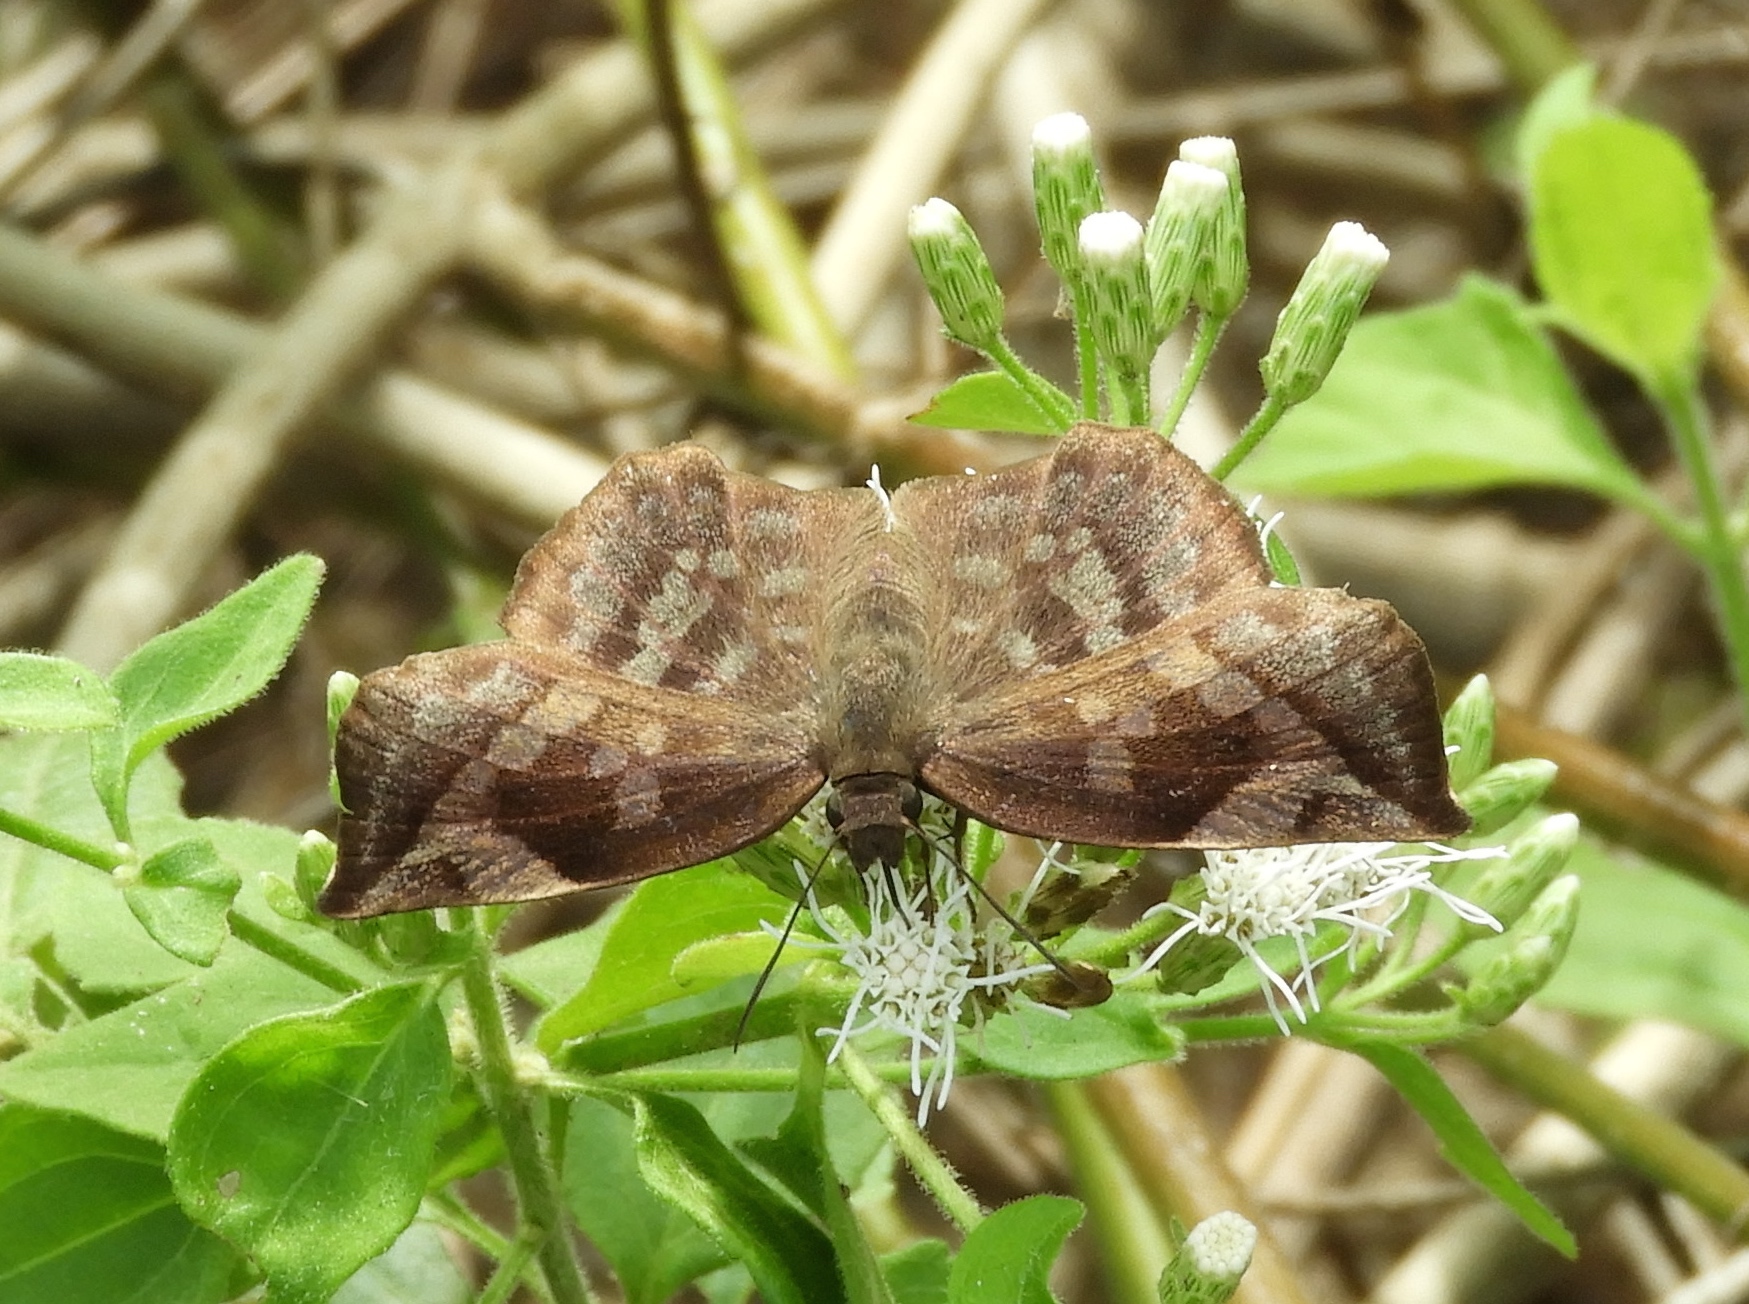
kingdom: Animalia
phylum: Arthropoda
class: Insecta
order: Lepidoptera
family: Hesperiidae
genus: Achlyodes
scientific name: Achlyodes thraso
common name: Sickle-winged skipper
